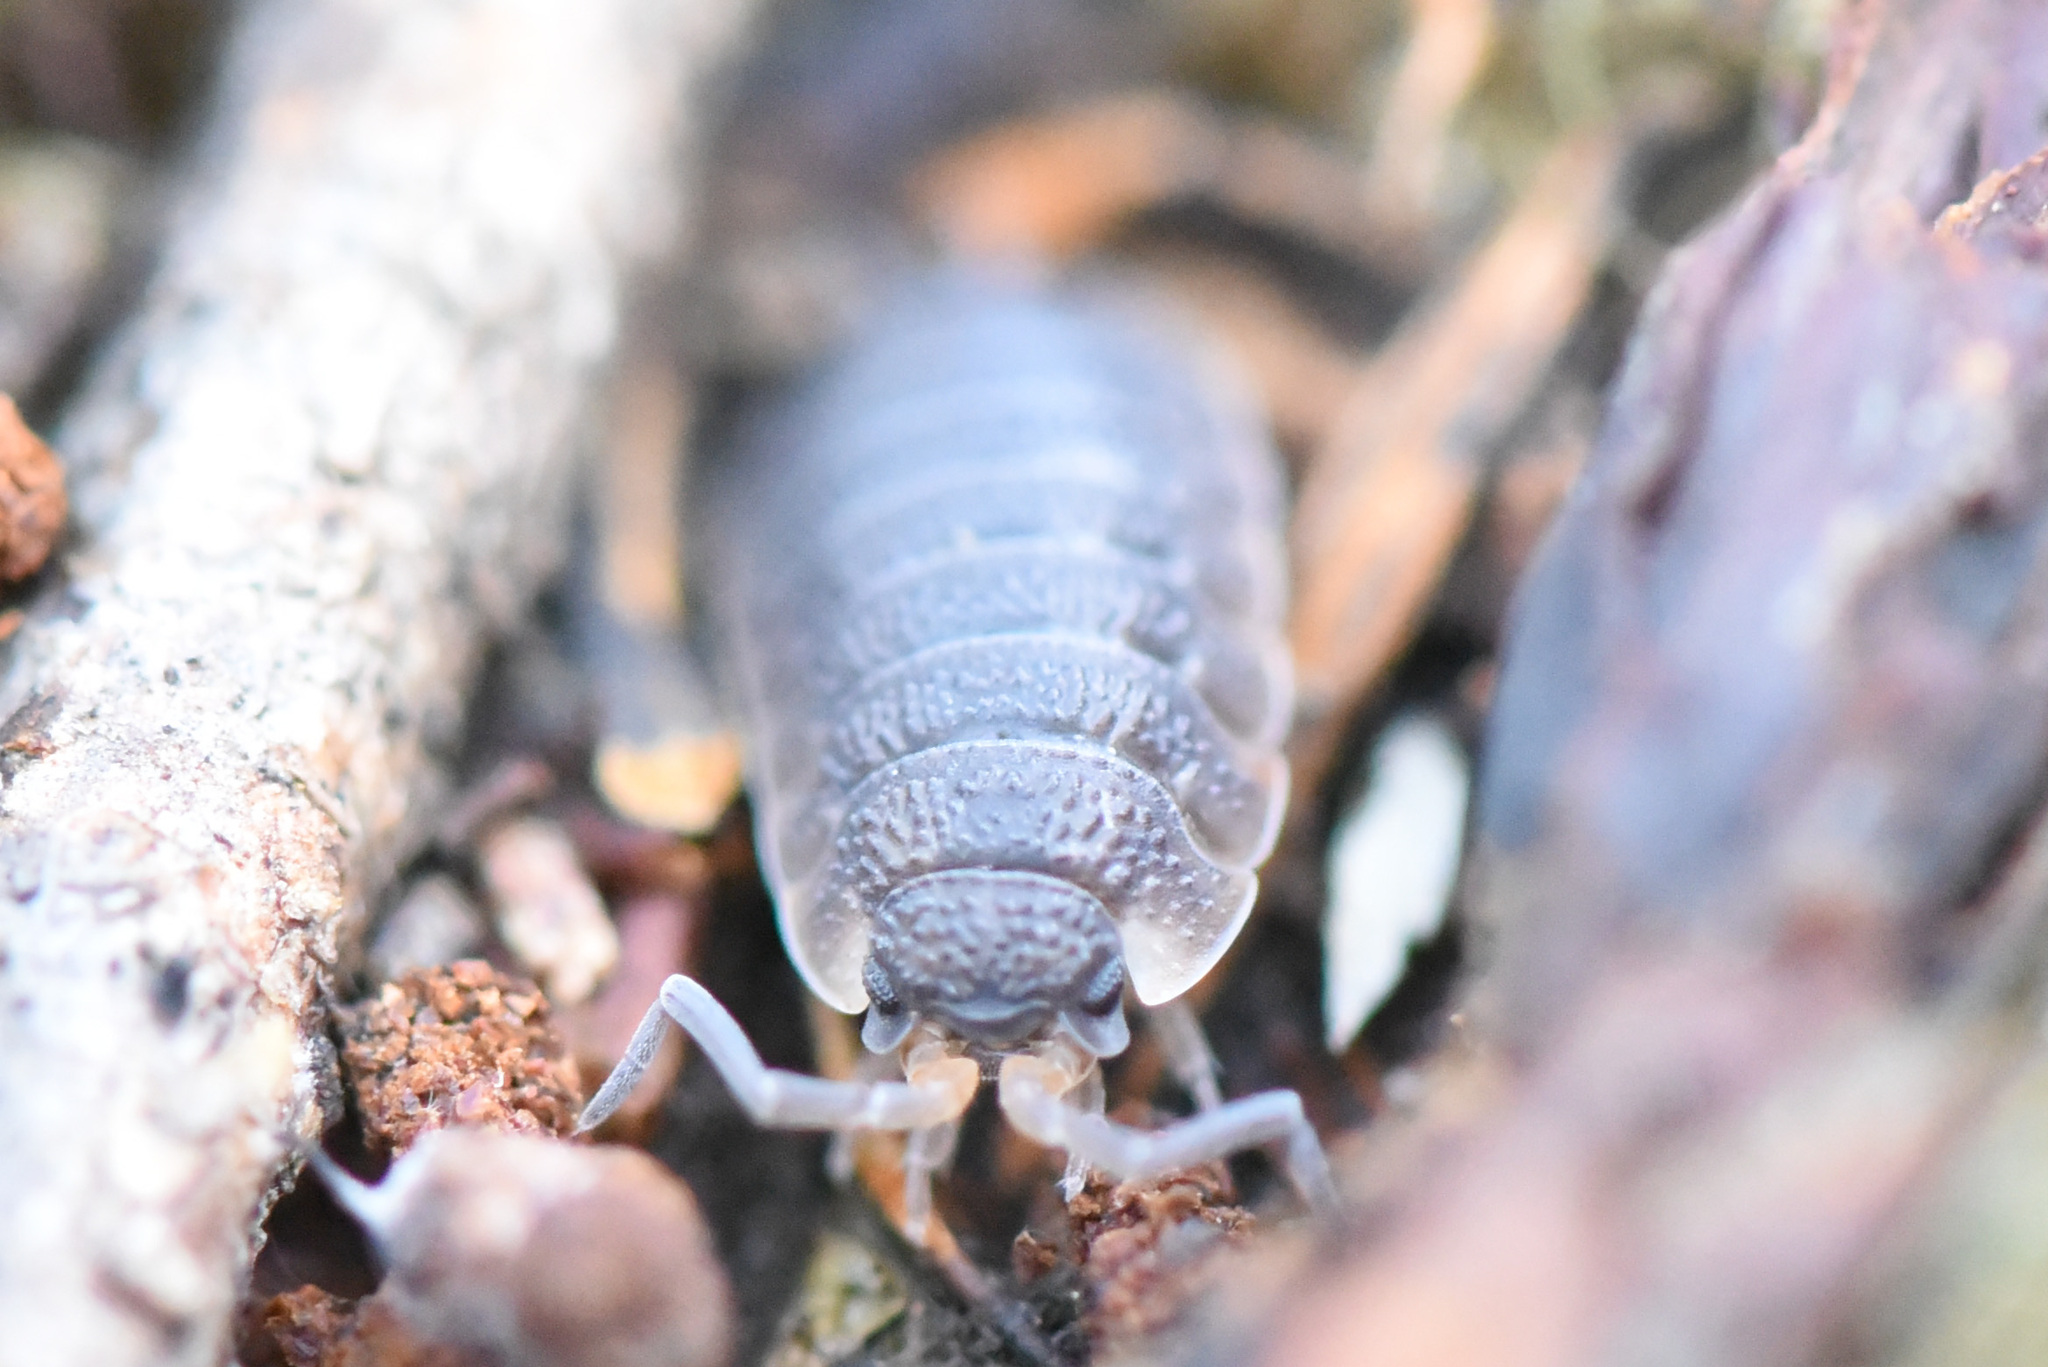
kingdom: Animalia
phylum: Arthropoda
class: Malacostraca
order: Isopoda
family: Porcellionidae
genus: Porcellio
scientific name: Porcellio scaber
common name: Common rough woodlouse
